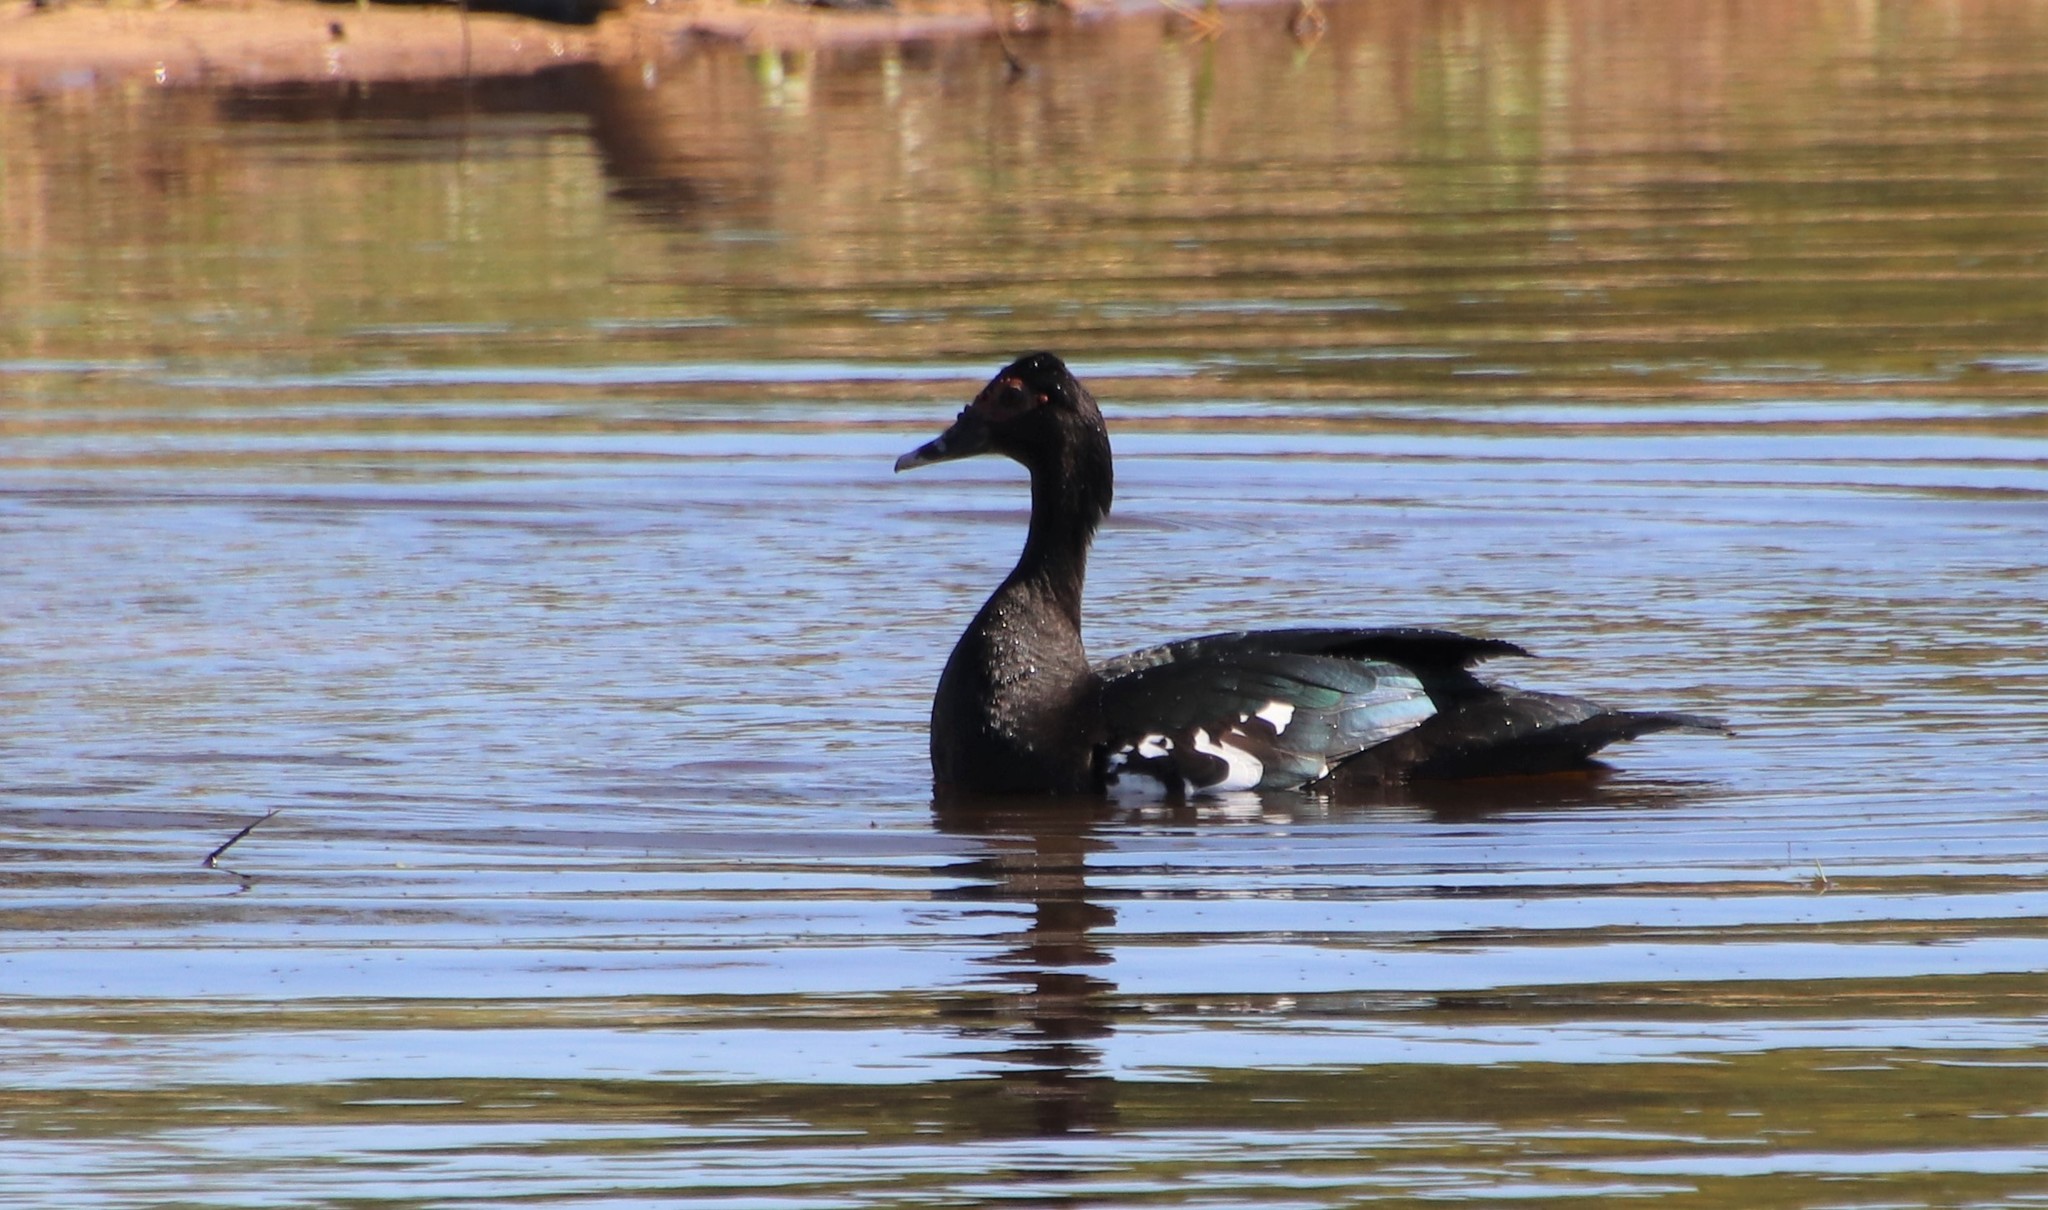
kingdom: Animalia
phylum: Chordata
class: Aves
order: Anseriformes
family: Anatidae
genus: Cairina
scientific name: Cairina moschata
